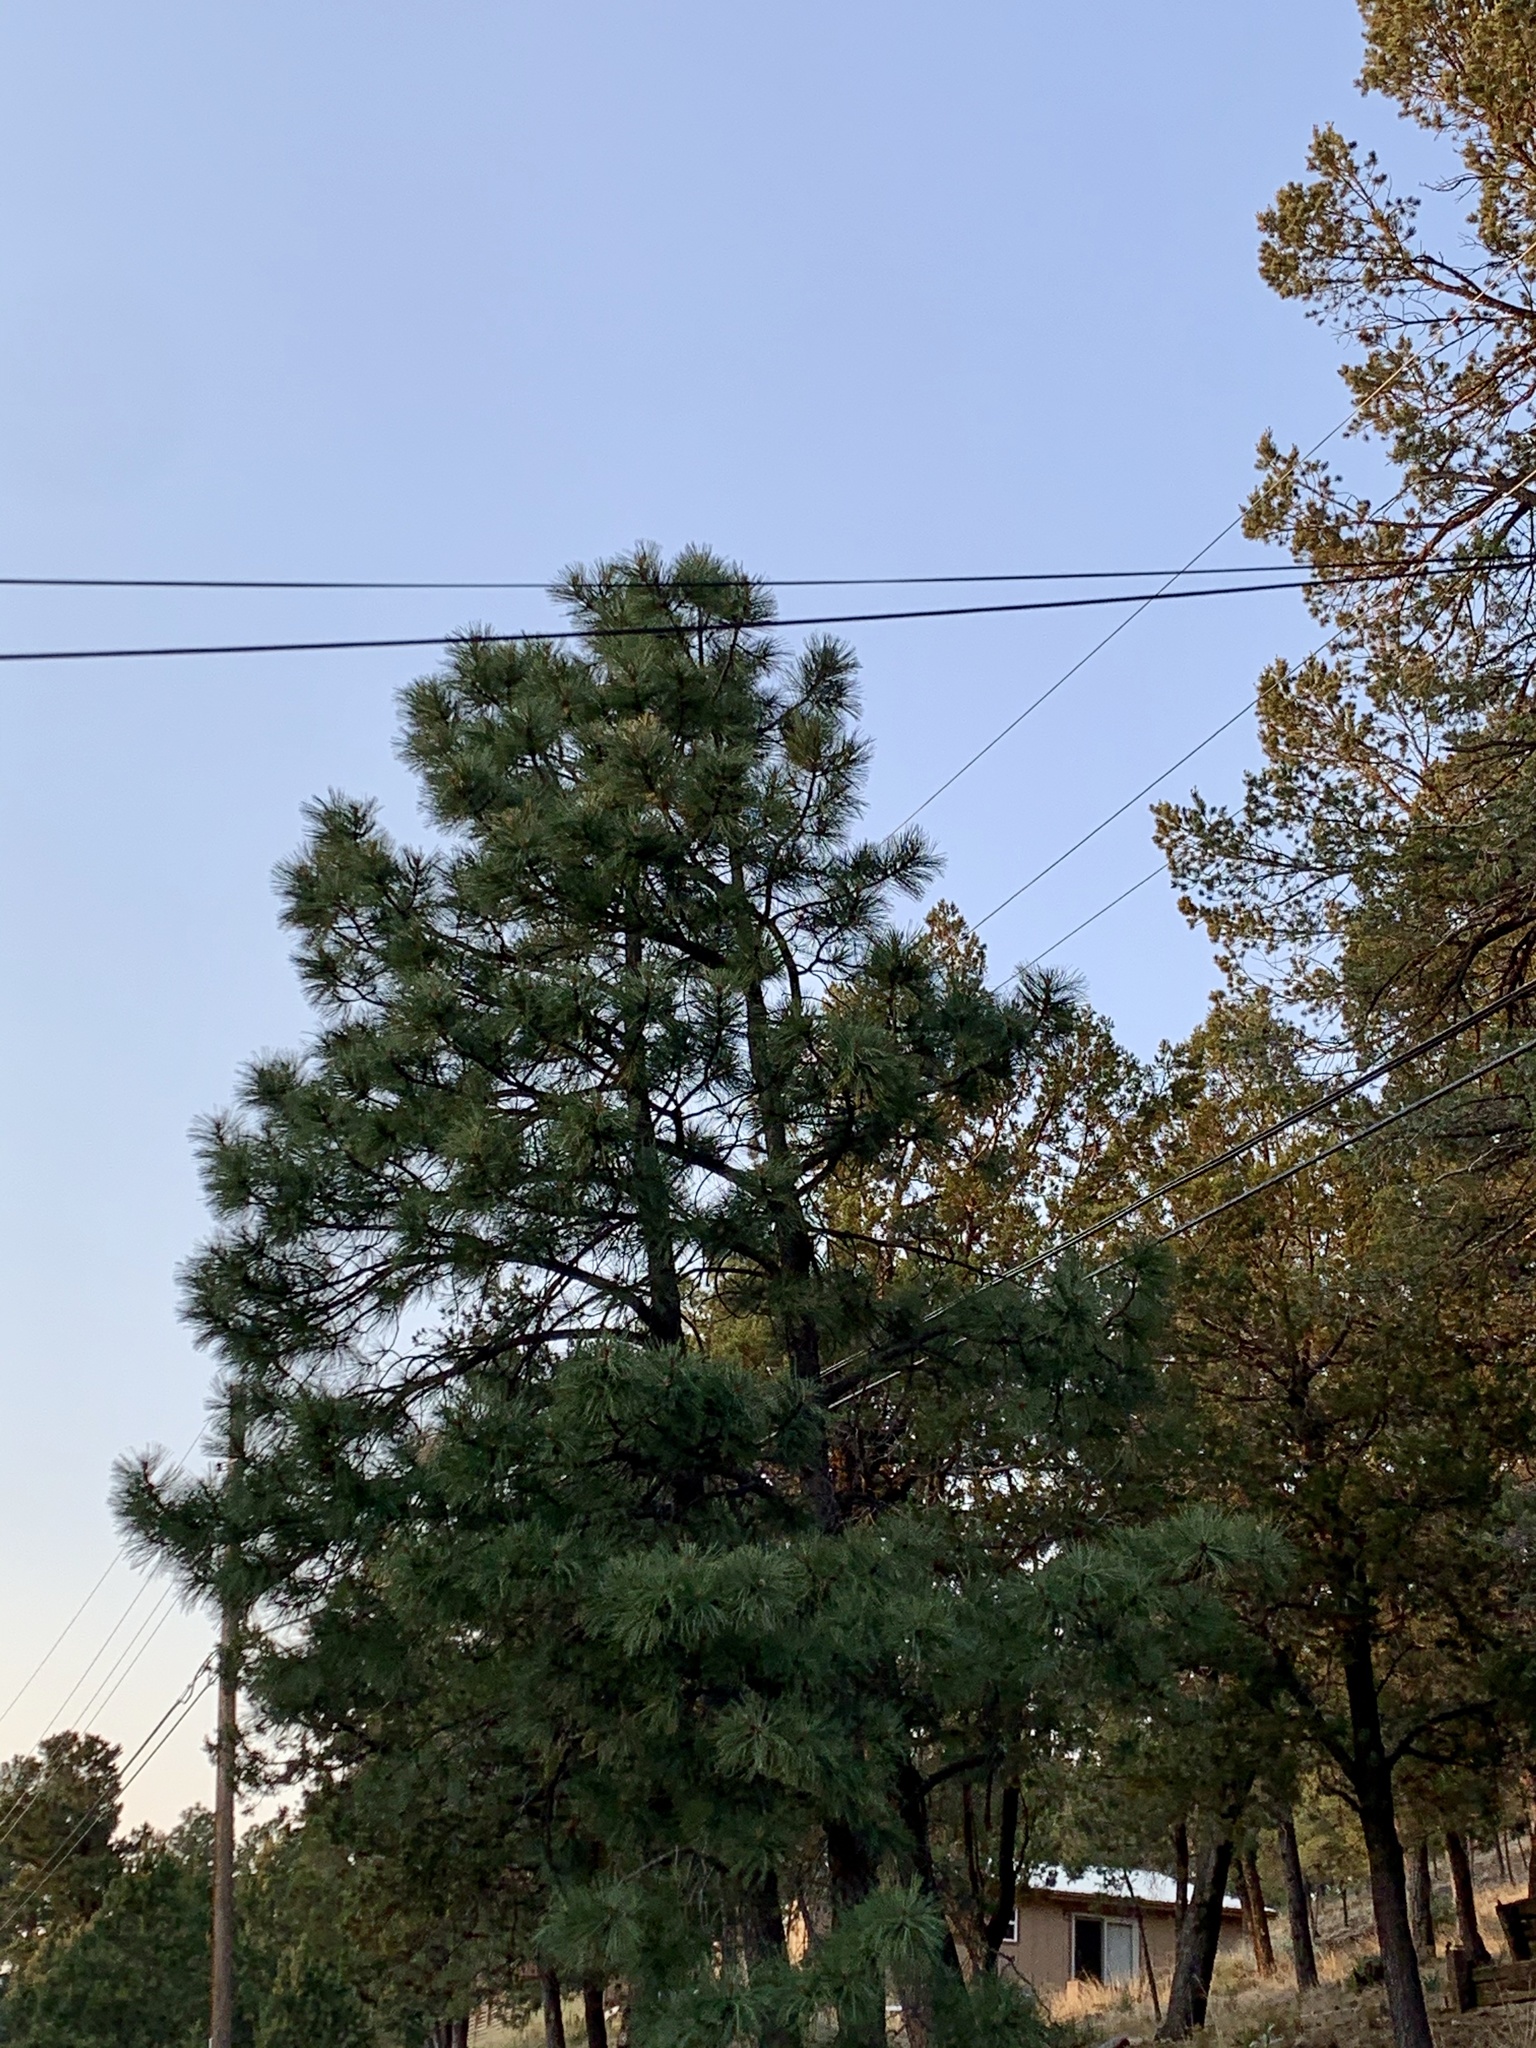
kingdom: Plantae
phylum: Tracheophyta
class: Pinopsida
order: Pinales
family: Pinaceae
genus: Pinus
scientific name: Pinus ponderosa
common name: Western yellow-pine
